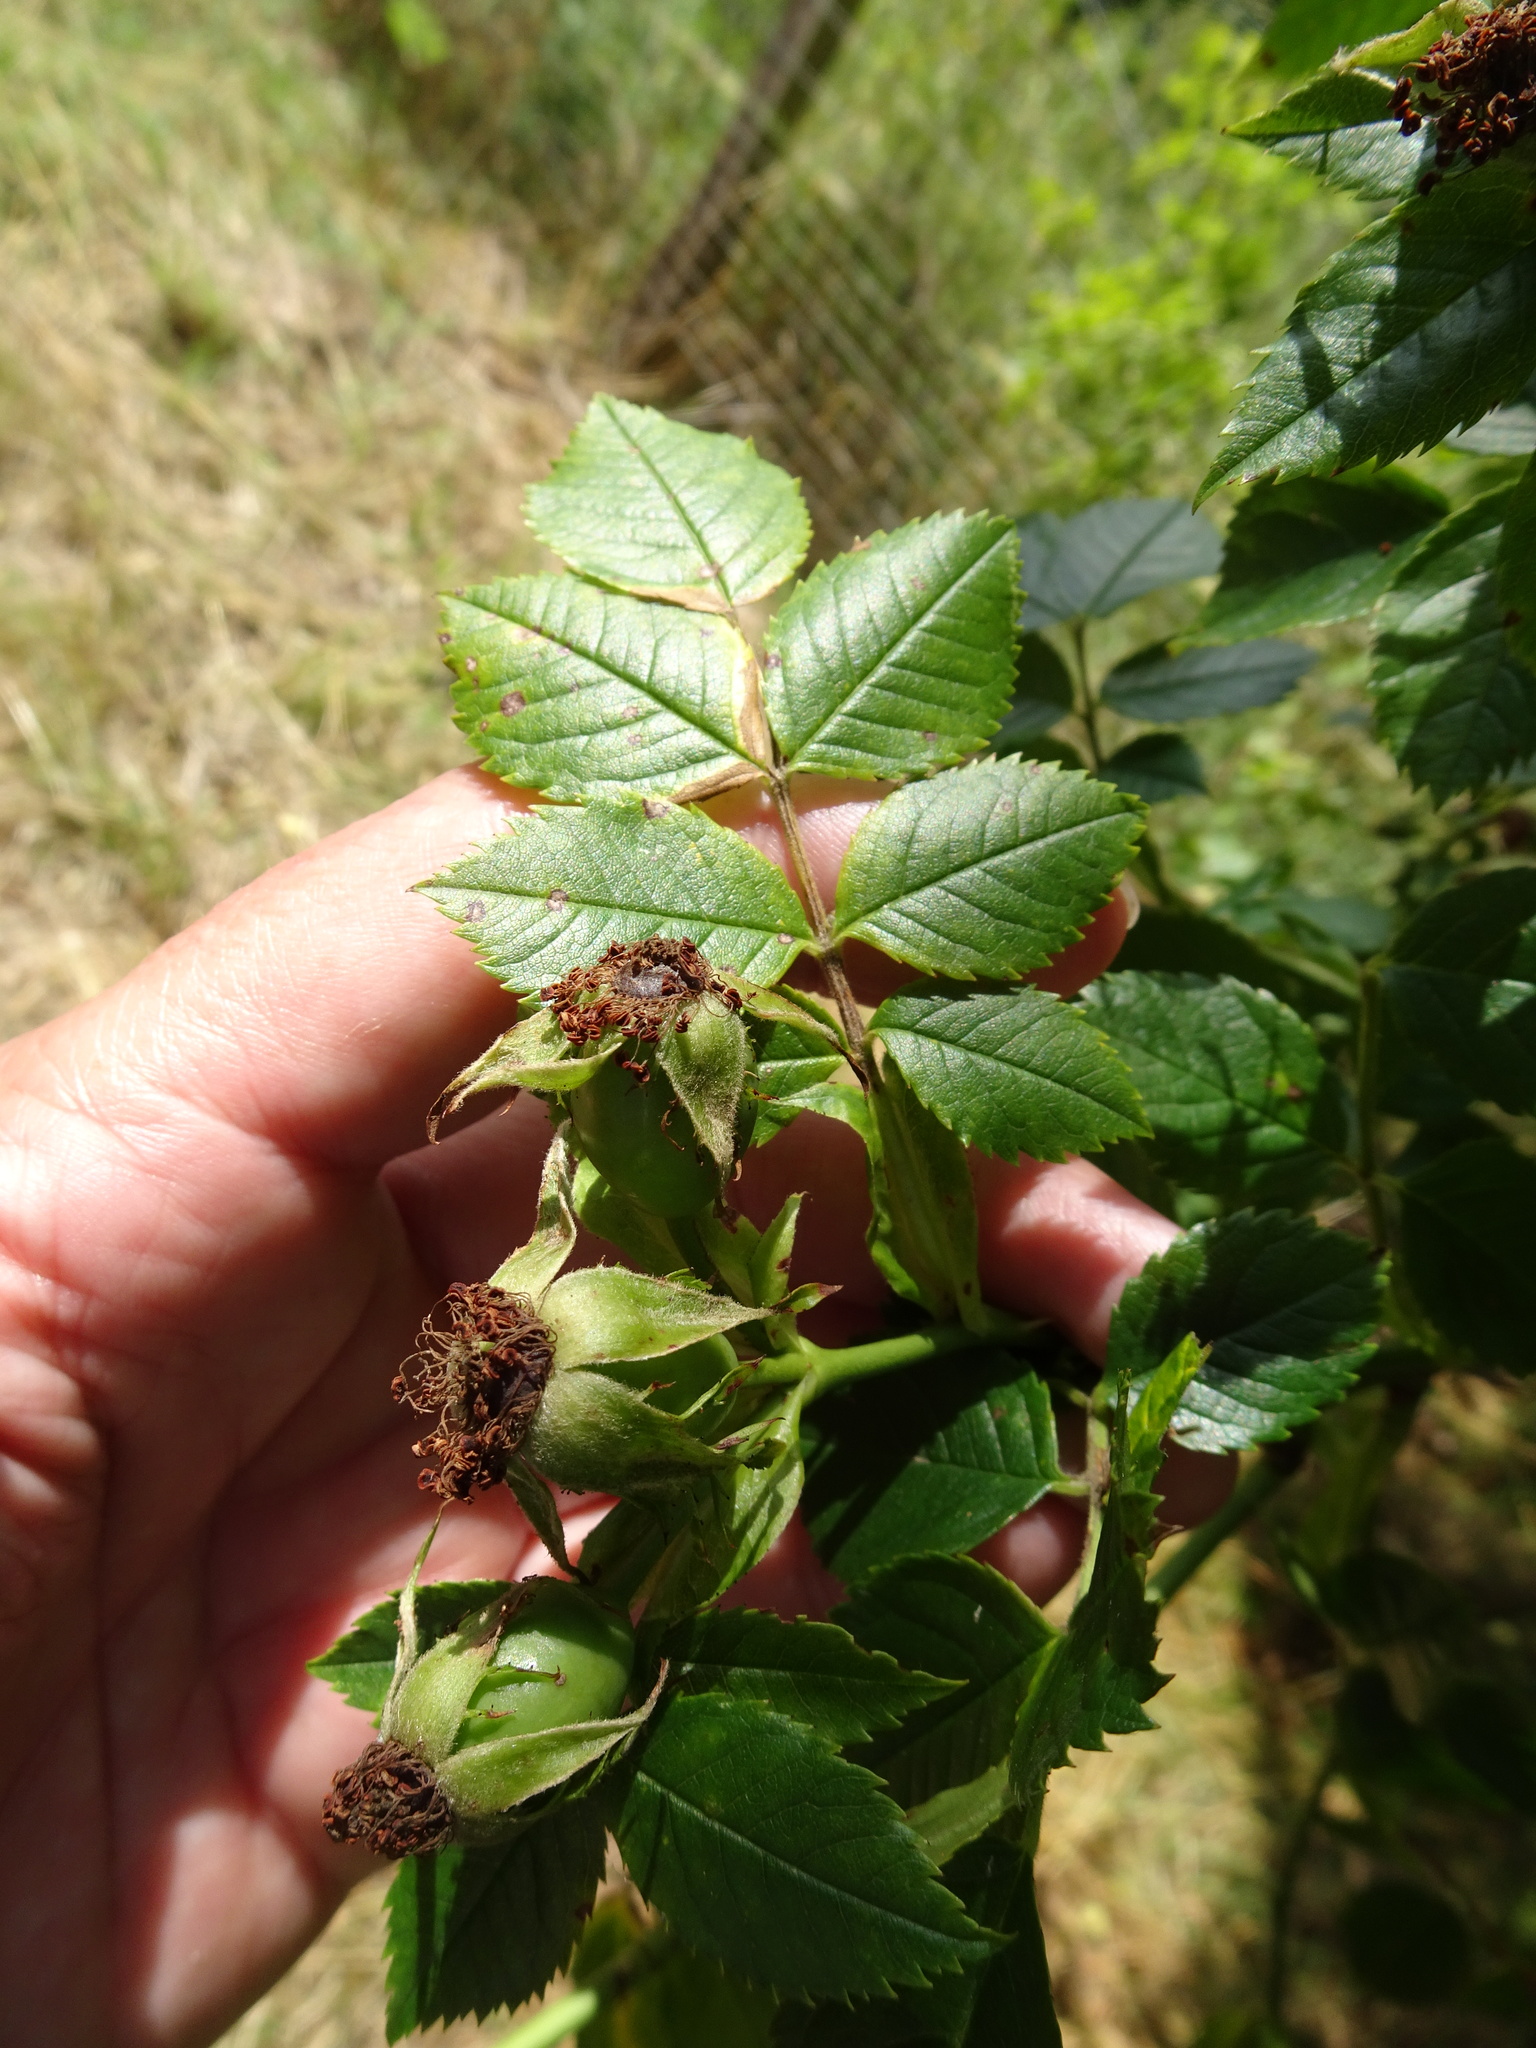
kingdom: Plantae
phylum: Tracheophyta
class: Magnoliopsida
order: Rosales
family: Rosaceae
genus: Rosa
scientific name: Rosa corymbifera
